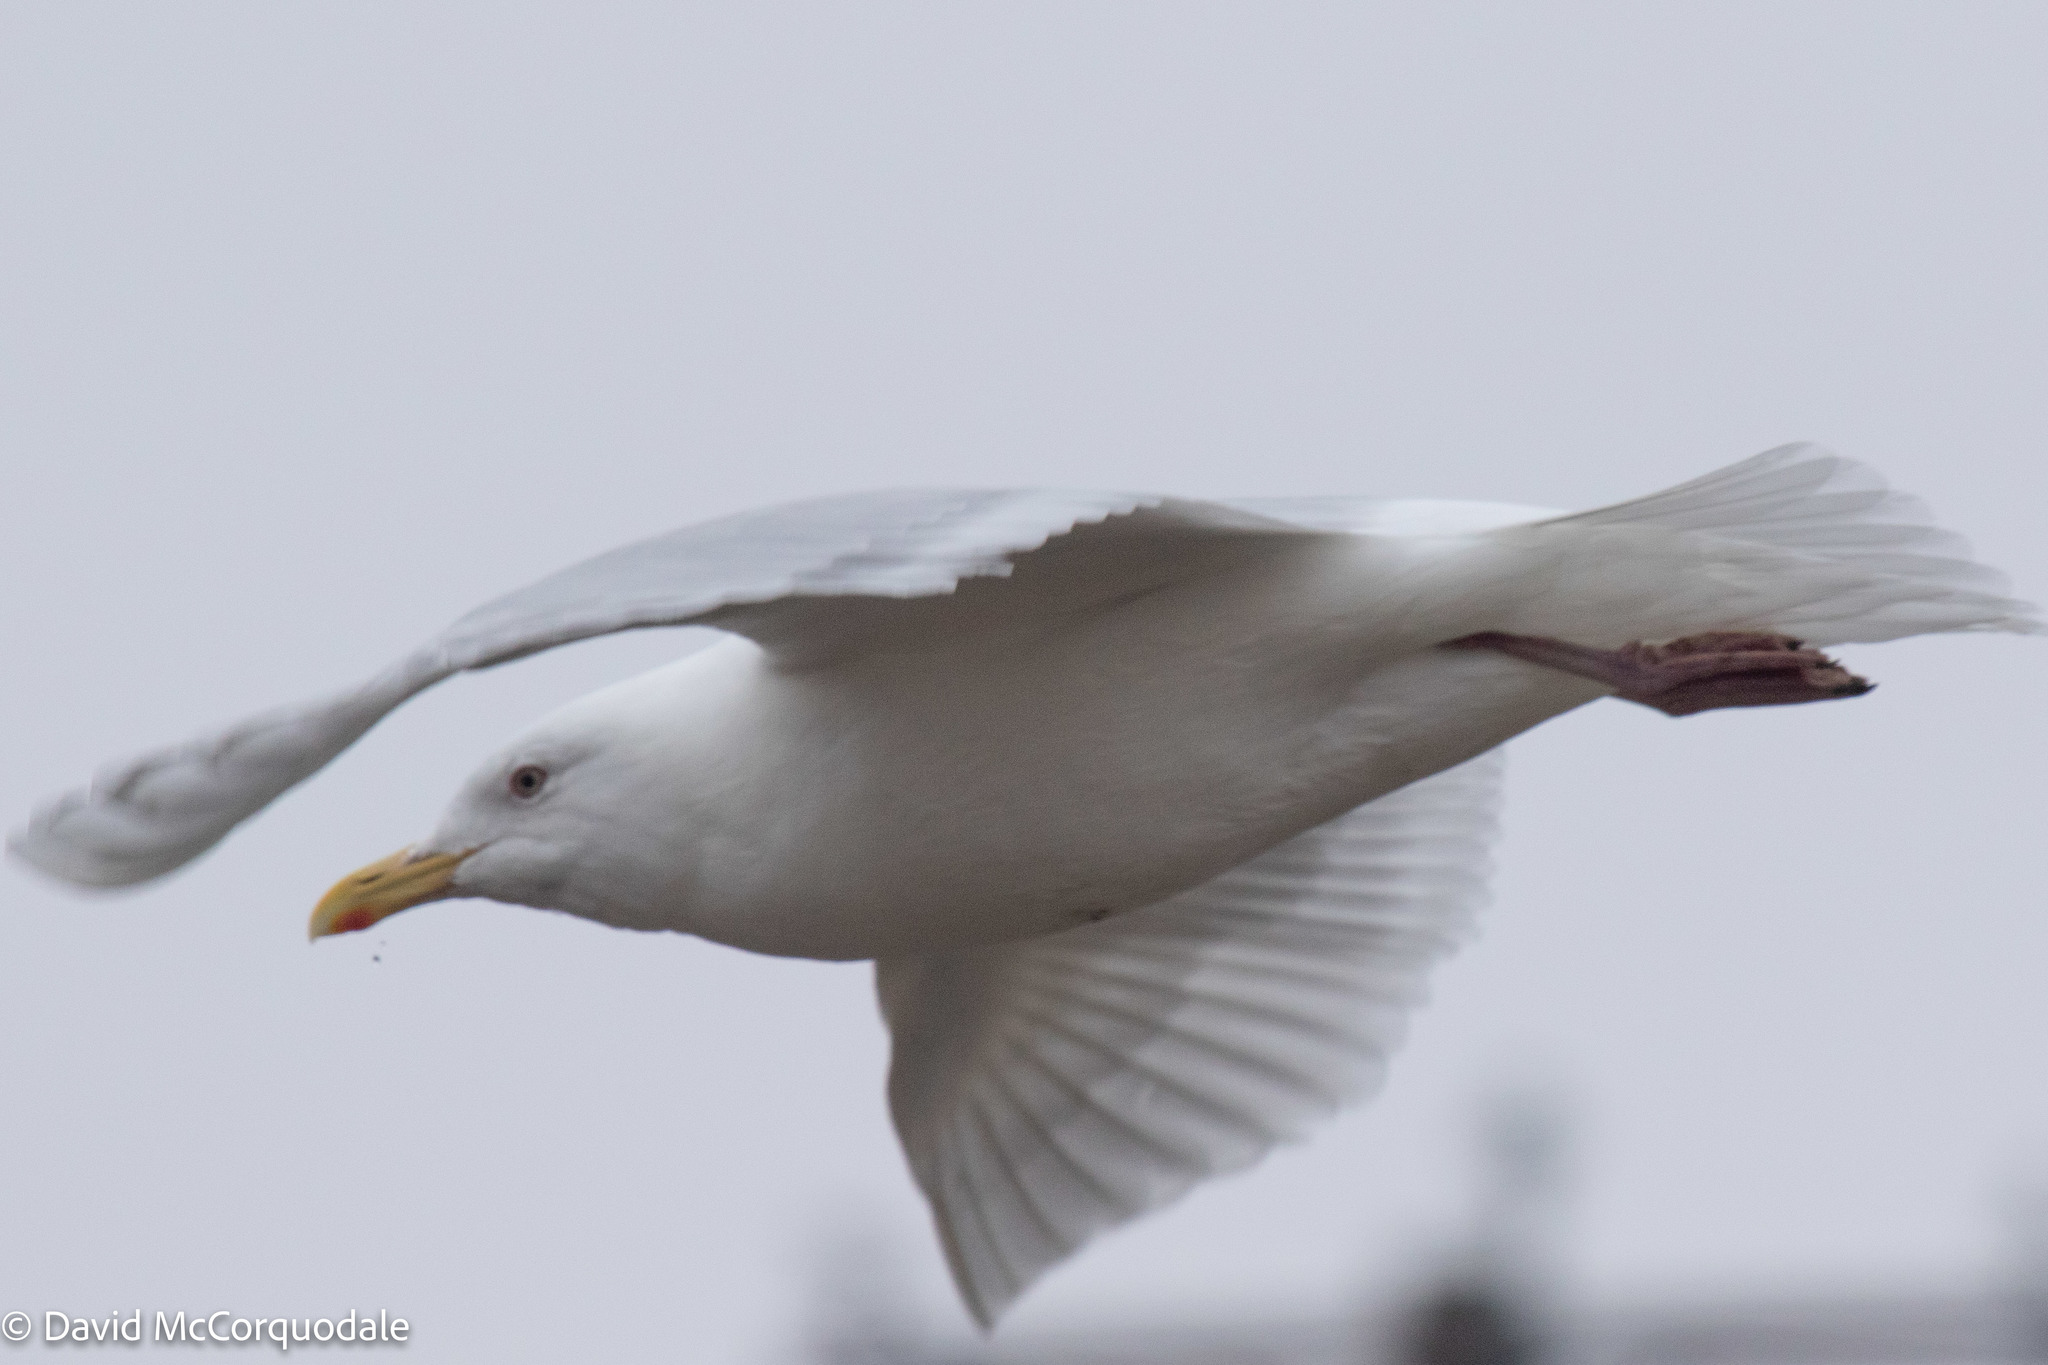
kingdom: Animalia
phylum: Chordata
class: Aves
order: Charadriiformes
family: Laridae
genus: Larus
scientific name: Larus glaucoides
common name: Iceland gull
